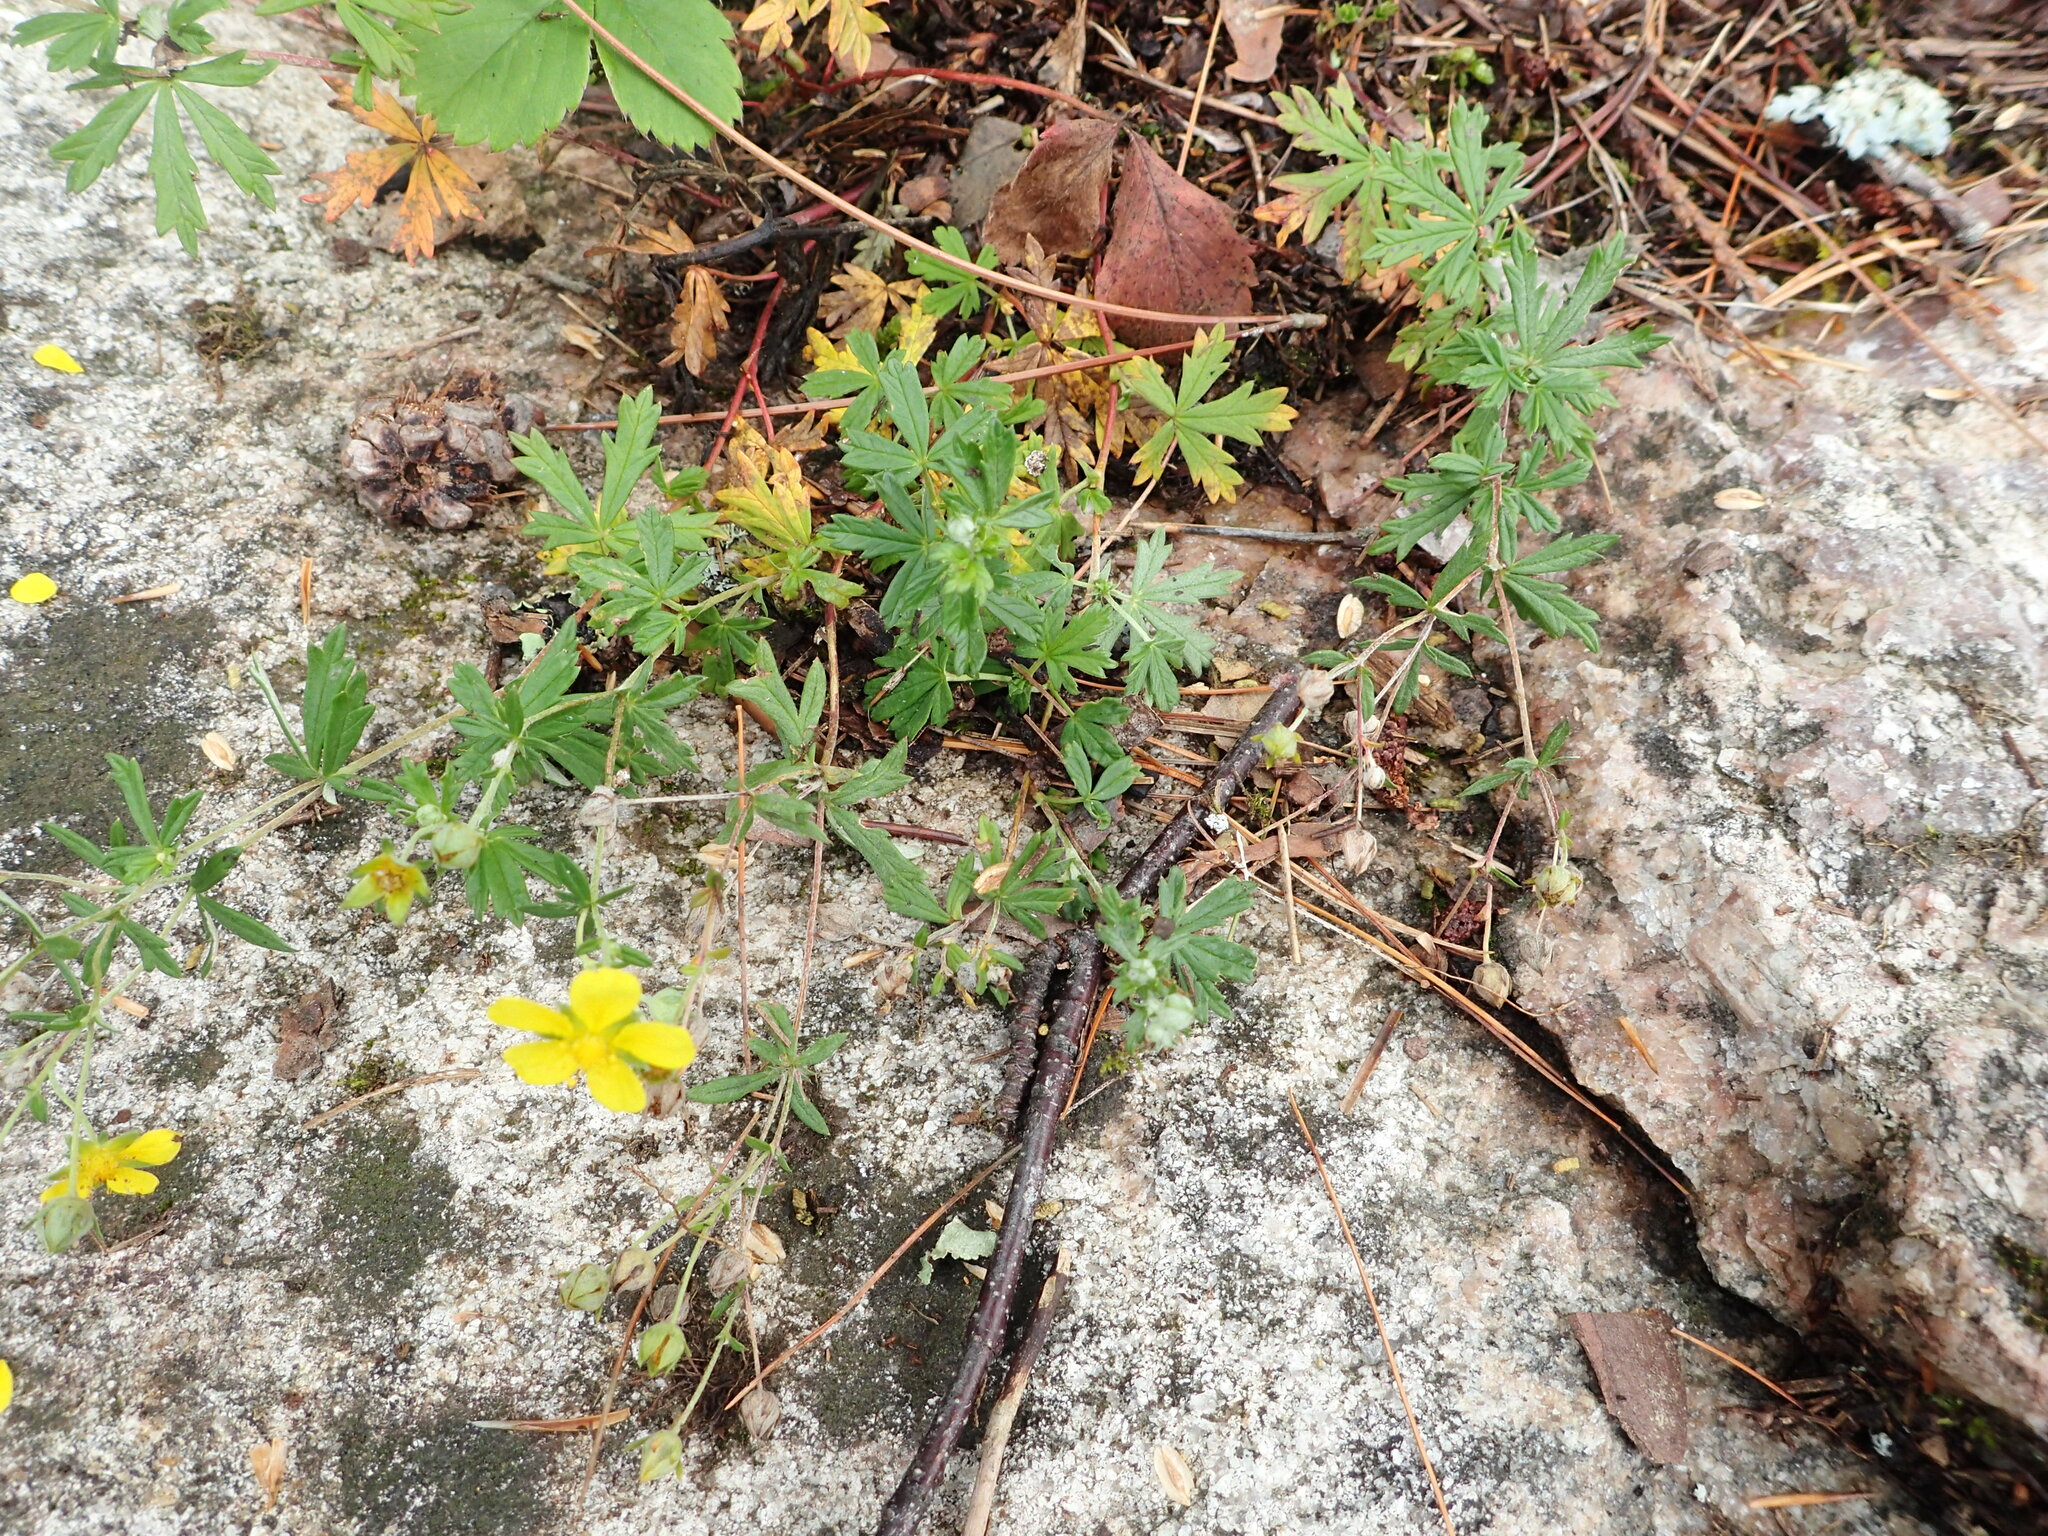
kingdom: Plantae
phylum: Tracheophyta
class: Magnoliopsida
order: Rosales
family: Rosaceae
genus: Potentilla
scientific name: Potentilla argentea
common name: Hoary cinquefoil
